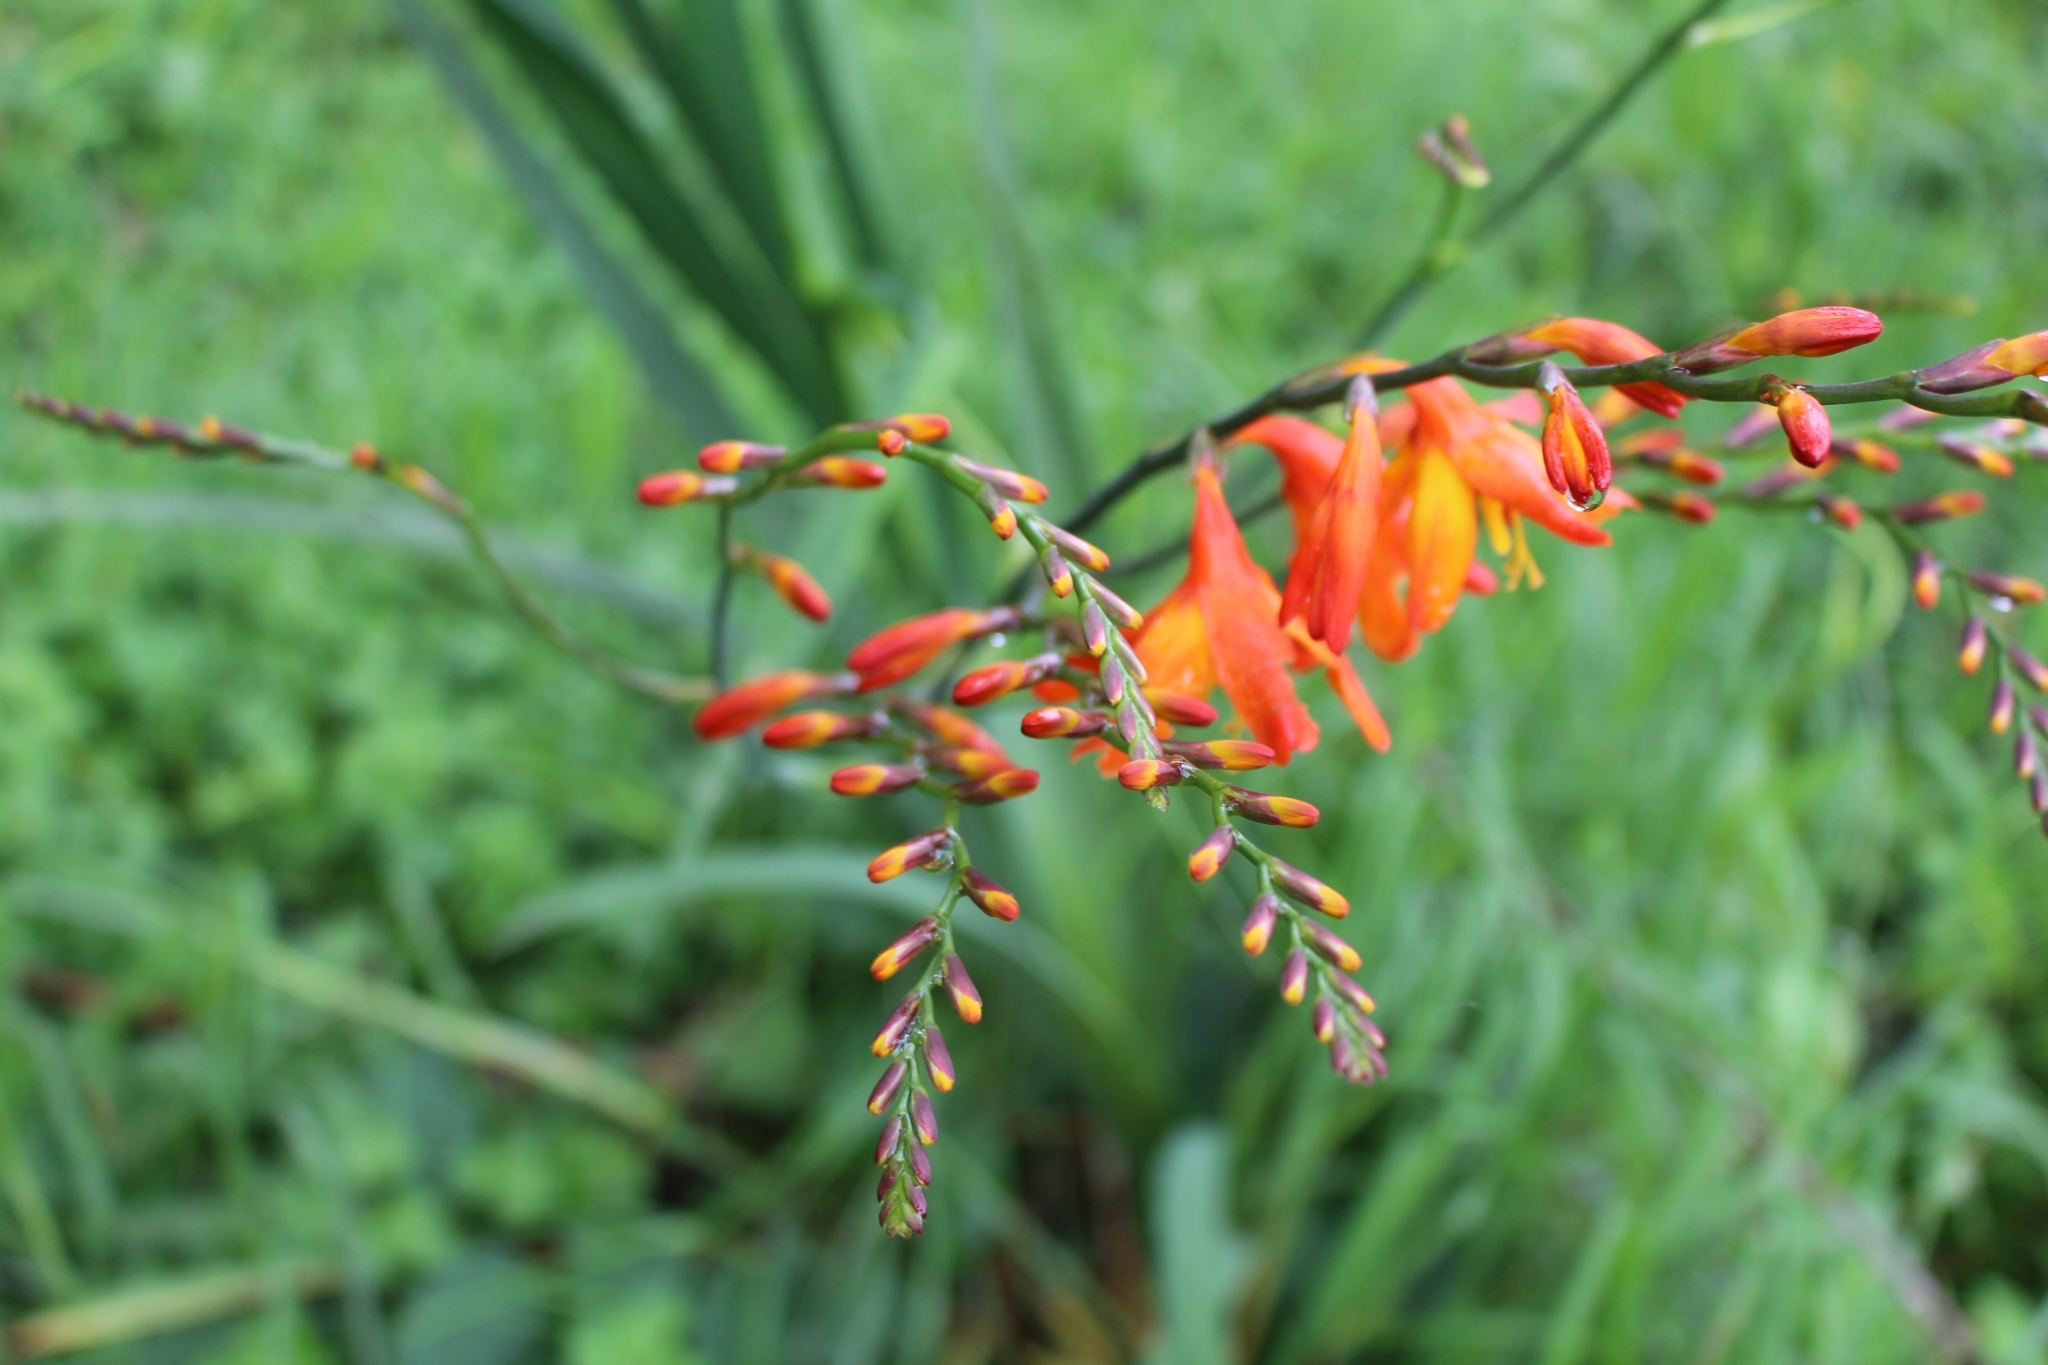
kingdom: Plantae
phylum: Tracheophyta
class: Liliopsida
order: Asparagales
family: Iridaceae
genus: Crocosmia
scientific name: Crocosmia crocosmiiflora
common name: Montbretia
